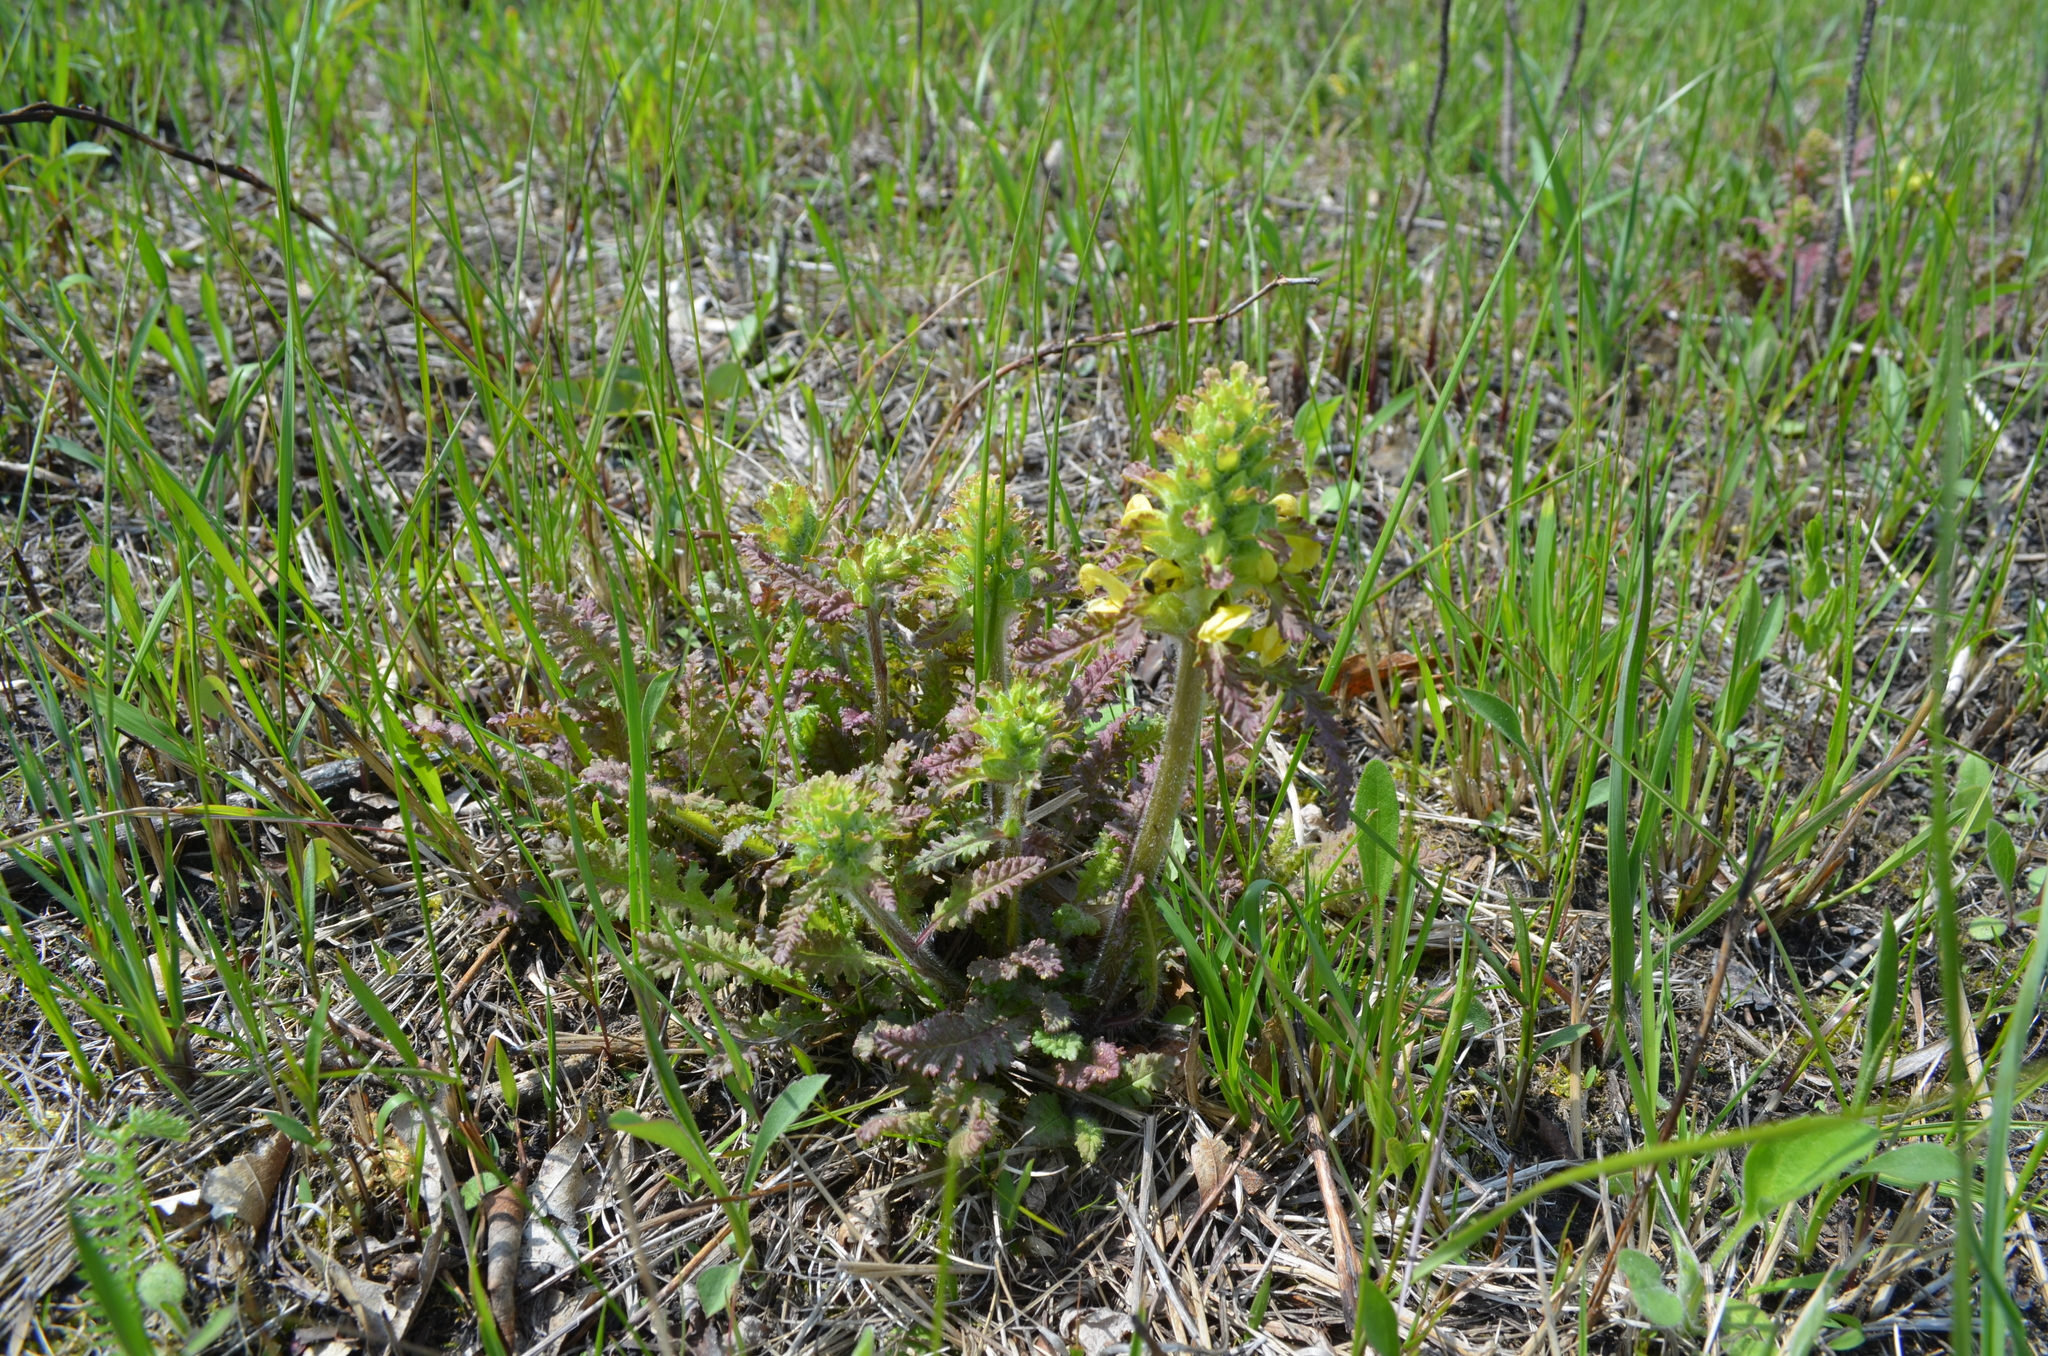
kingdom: Plantae
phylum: Tracheophyta
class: Magnoliopsida
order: Lamiales
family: Orobanchaceae
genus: Pedicularis
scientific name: Pedicularis canadensis
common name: Early lousewort
